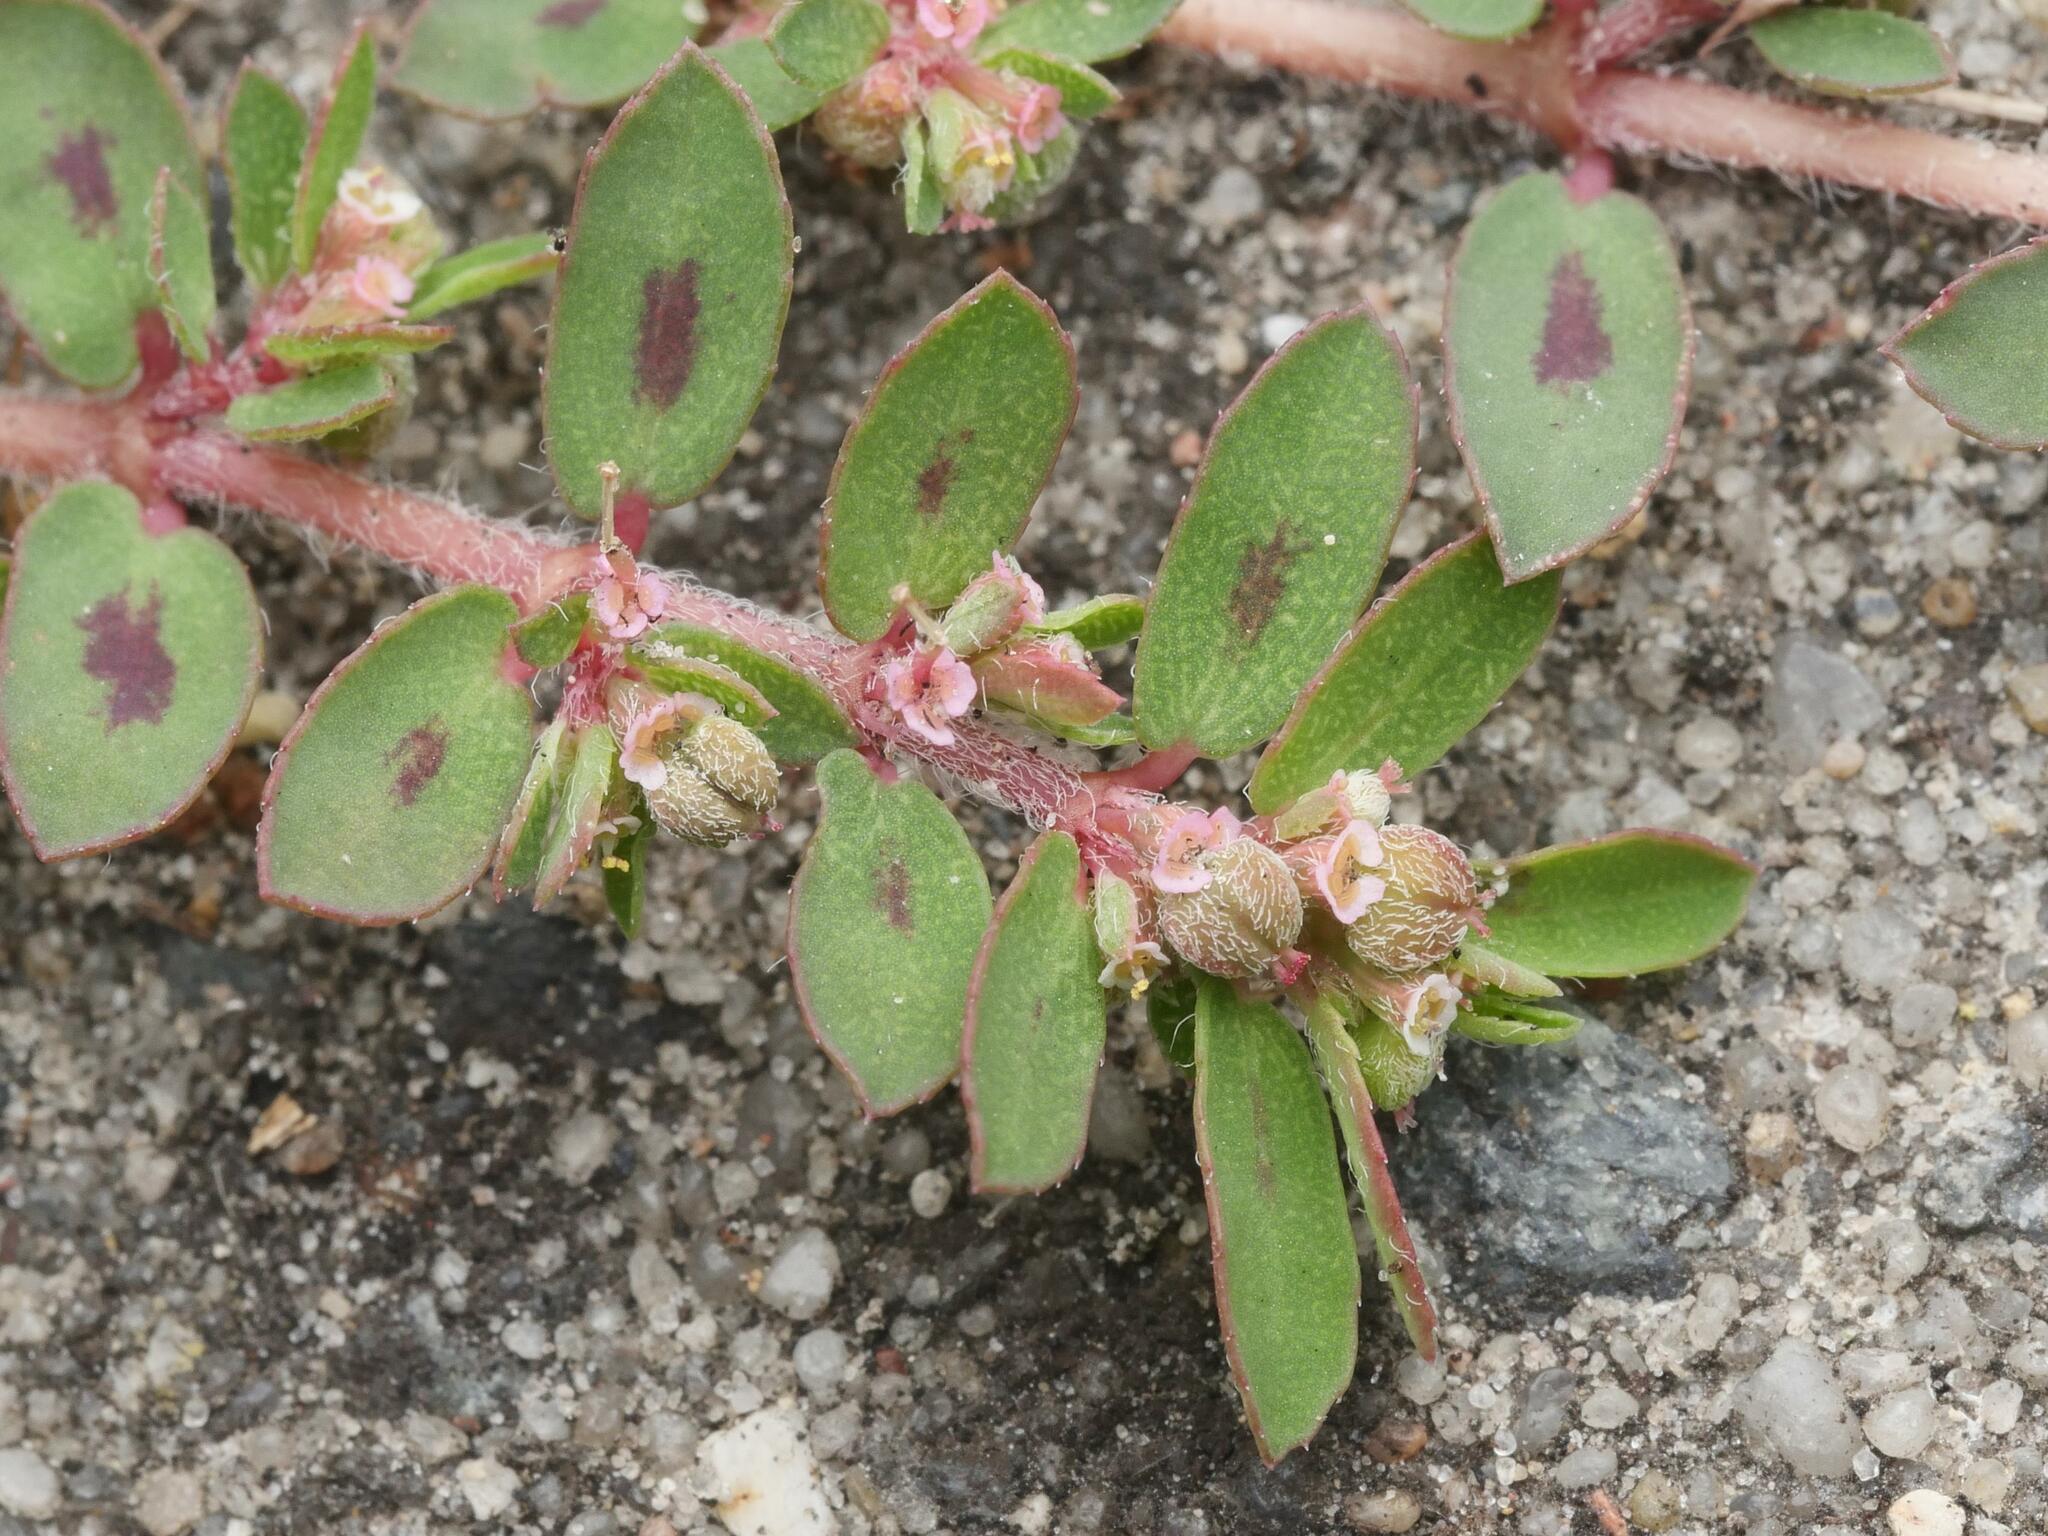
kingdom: Plantae
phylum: Tracheophyta
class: Magnoliopsida
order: Malpighiales
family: Euphorbiaceae
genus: Euphorbia
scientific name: Euphorbia maculata
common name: Spotted spurge
